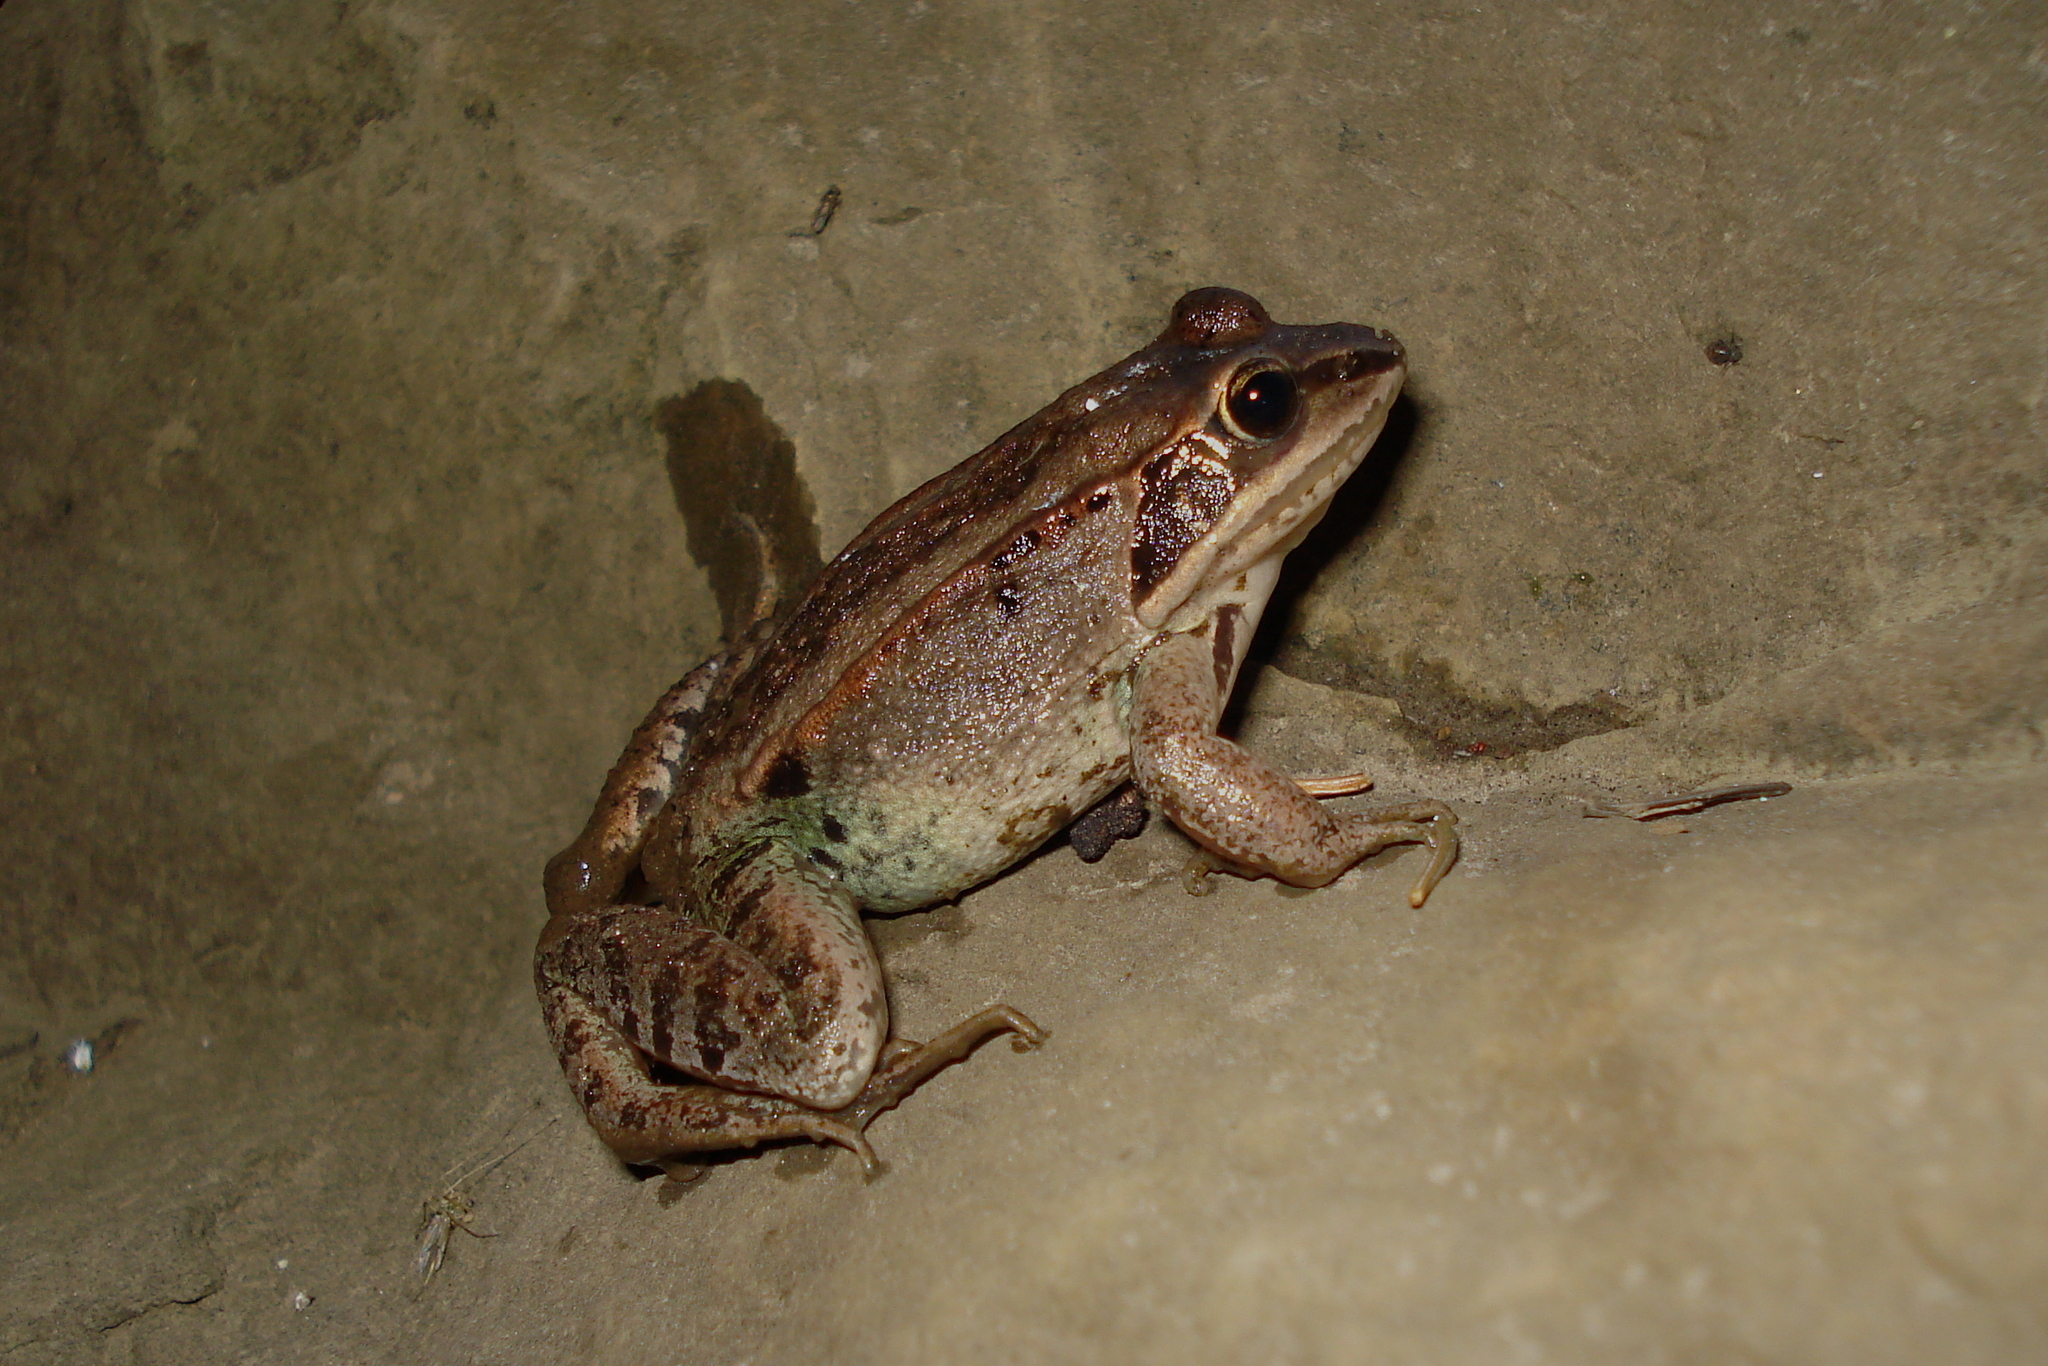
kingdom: Animalia
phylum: Chordata
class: Amphibia
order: Anura
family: Ranidae
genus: Lithobates
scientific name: Lithobates sylvaticus
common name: Wood frog
